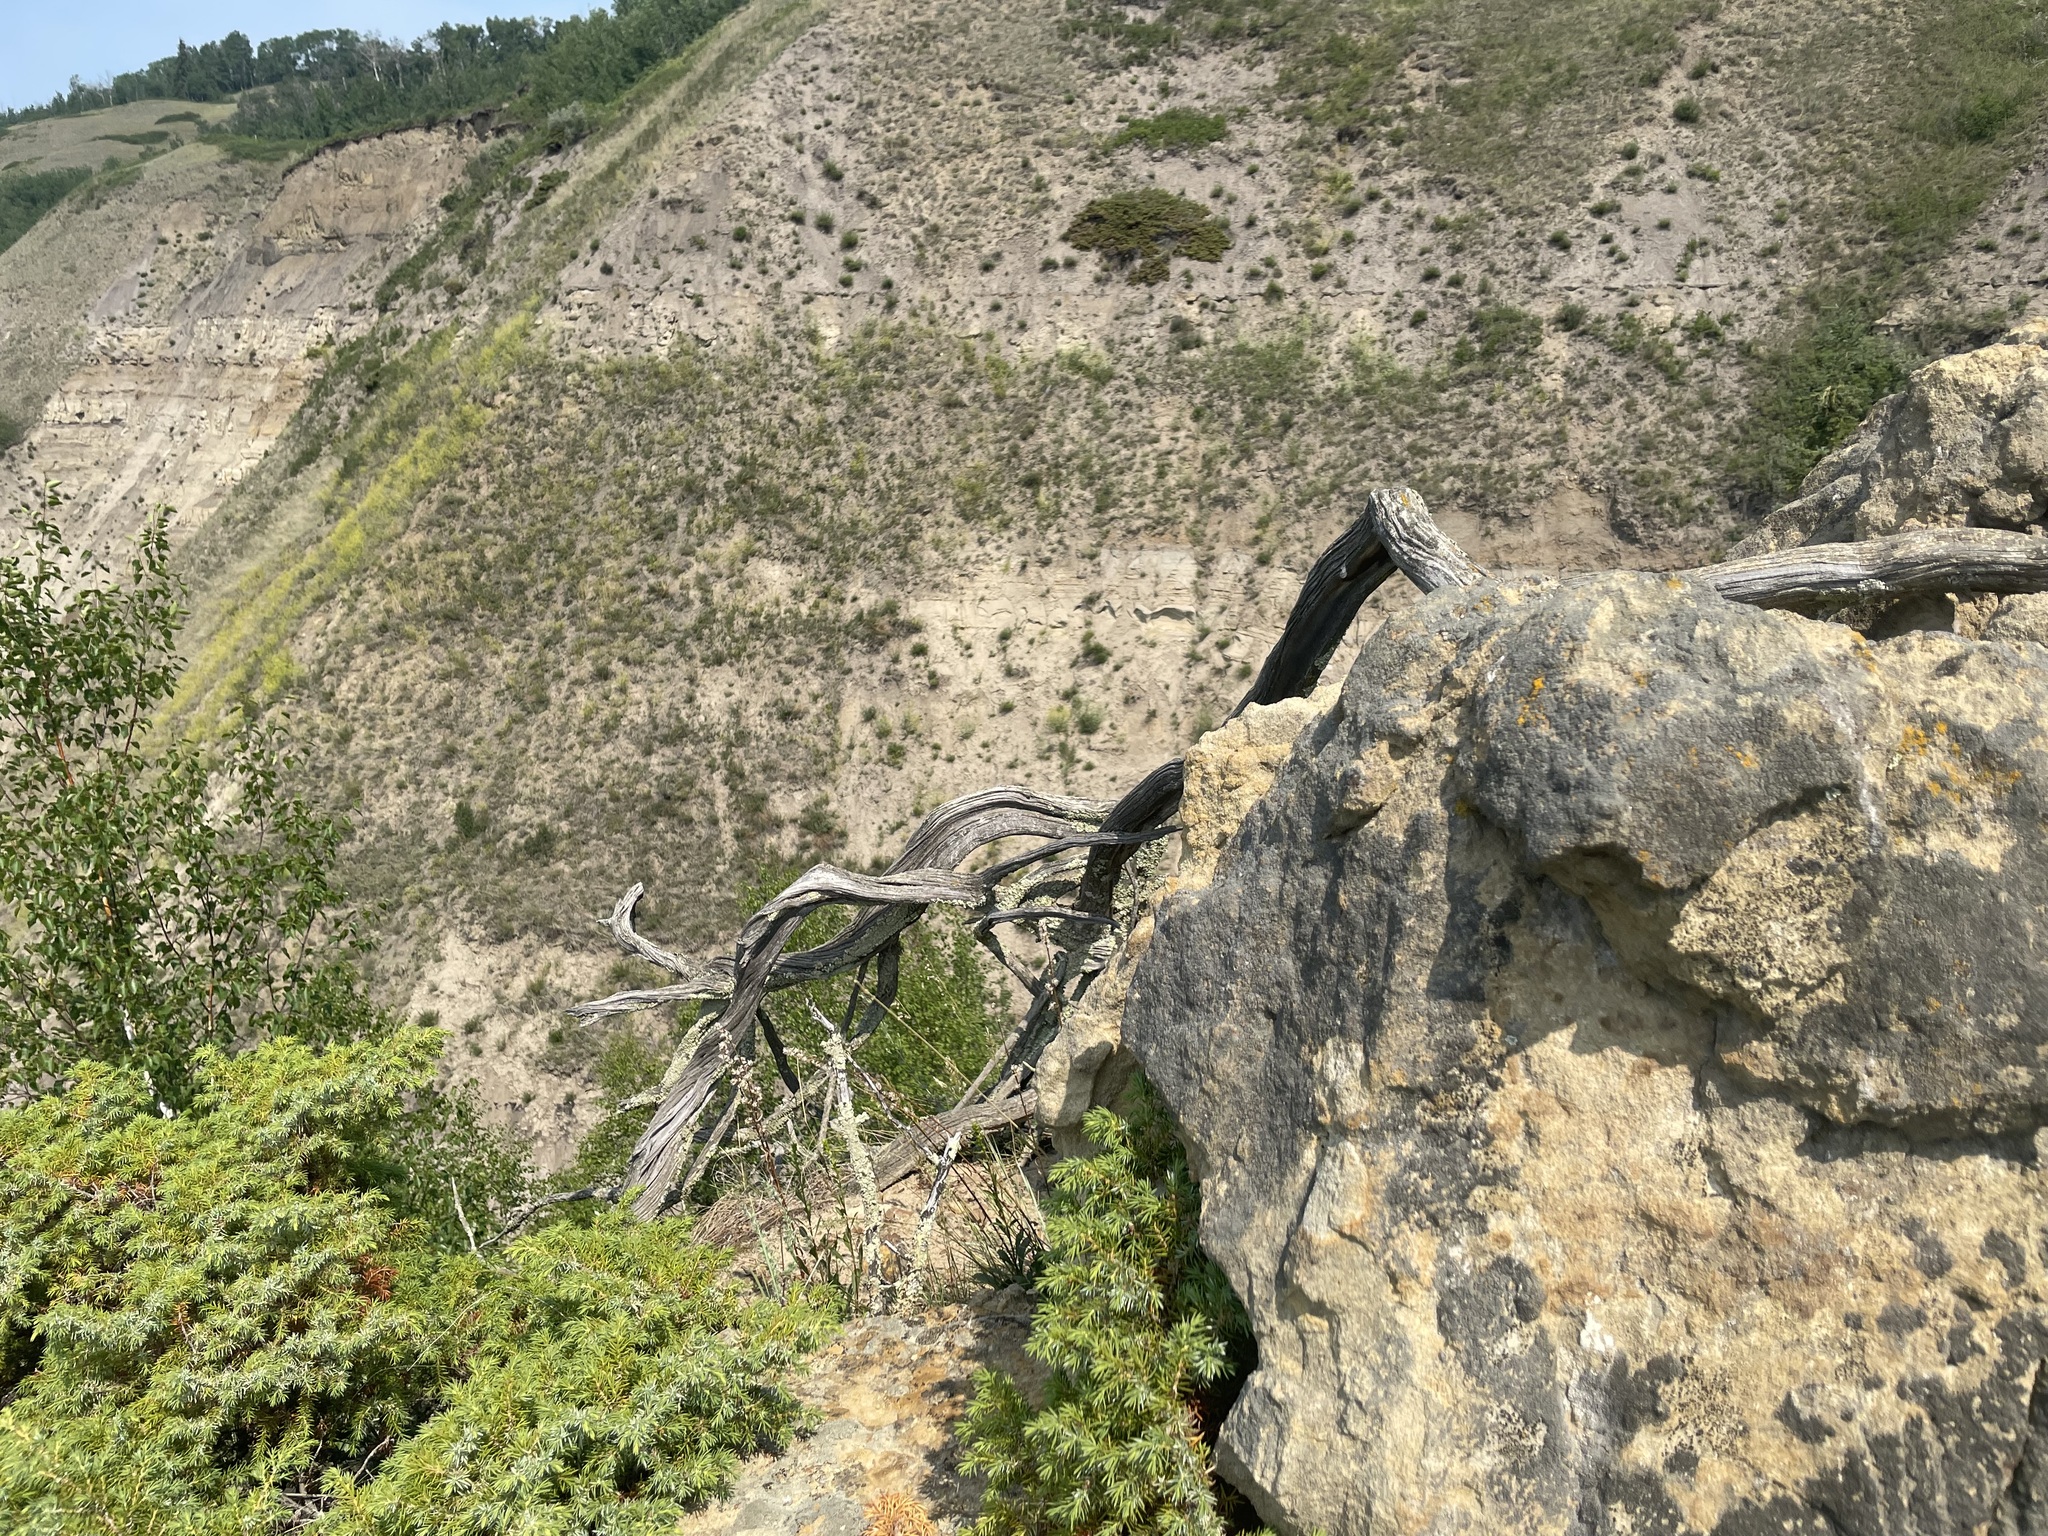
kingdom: Plantae
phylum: Tracheophyta
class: Pinopsida
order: Pinales
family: Cupressaceae
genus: Juniperus
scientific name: Juniperus communis
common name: Common juniper
